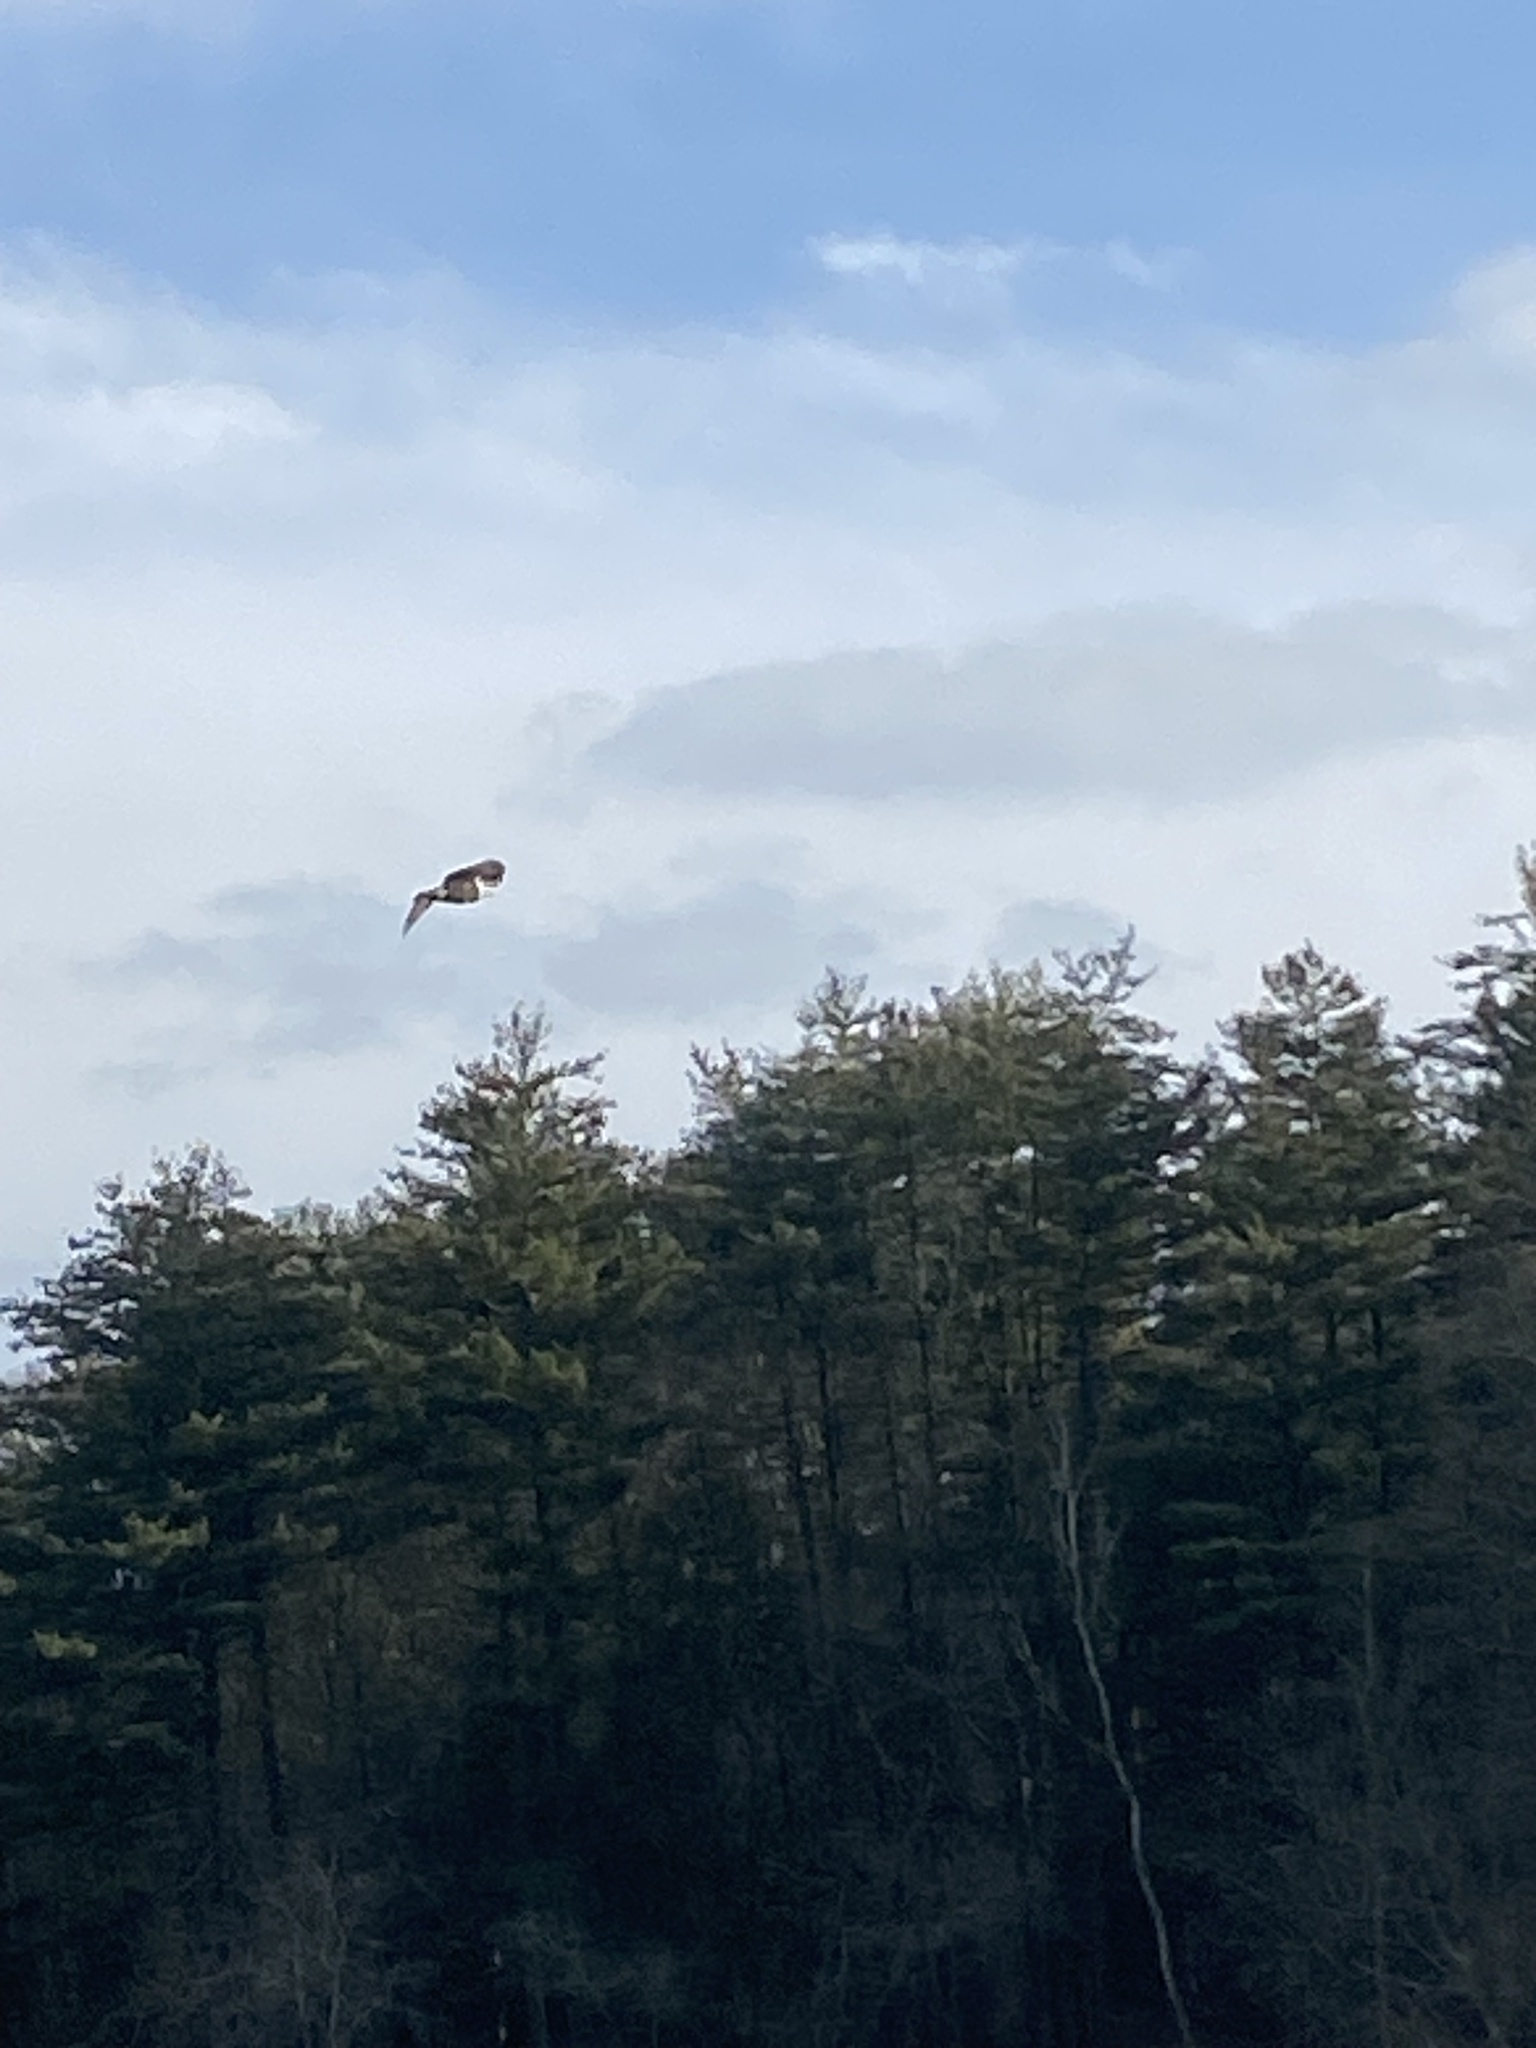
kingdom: Animalia
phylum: Chordata
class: Aves
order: Accipitriformes
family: Accipitridae
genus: Haliaeetus
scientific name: Haliaeetus leucocephalus
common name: Bald eagle
